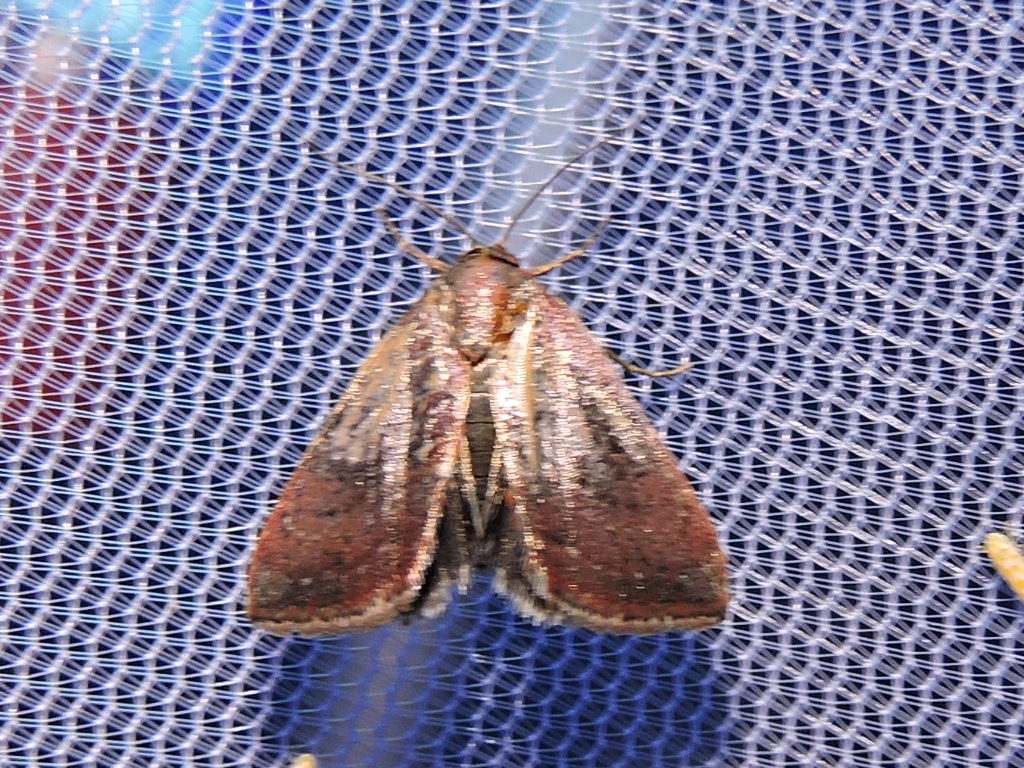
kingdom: Animalia
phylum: Arthropoda
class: Insecta
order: Lepidoptera
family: Noctuidae
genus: Galgula
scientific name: Galgula partita
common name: Wedgeling
